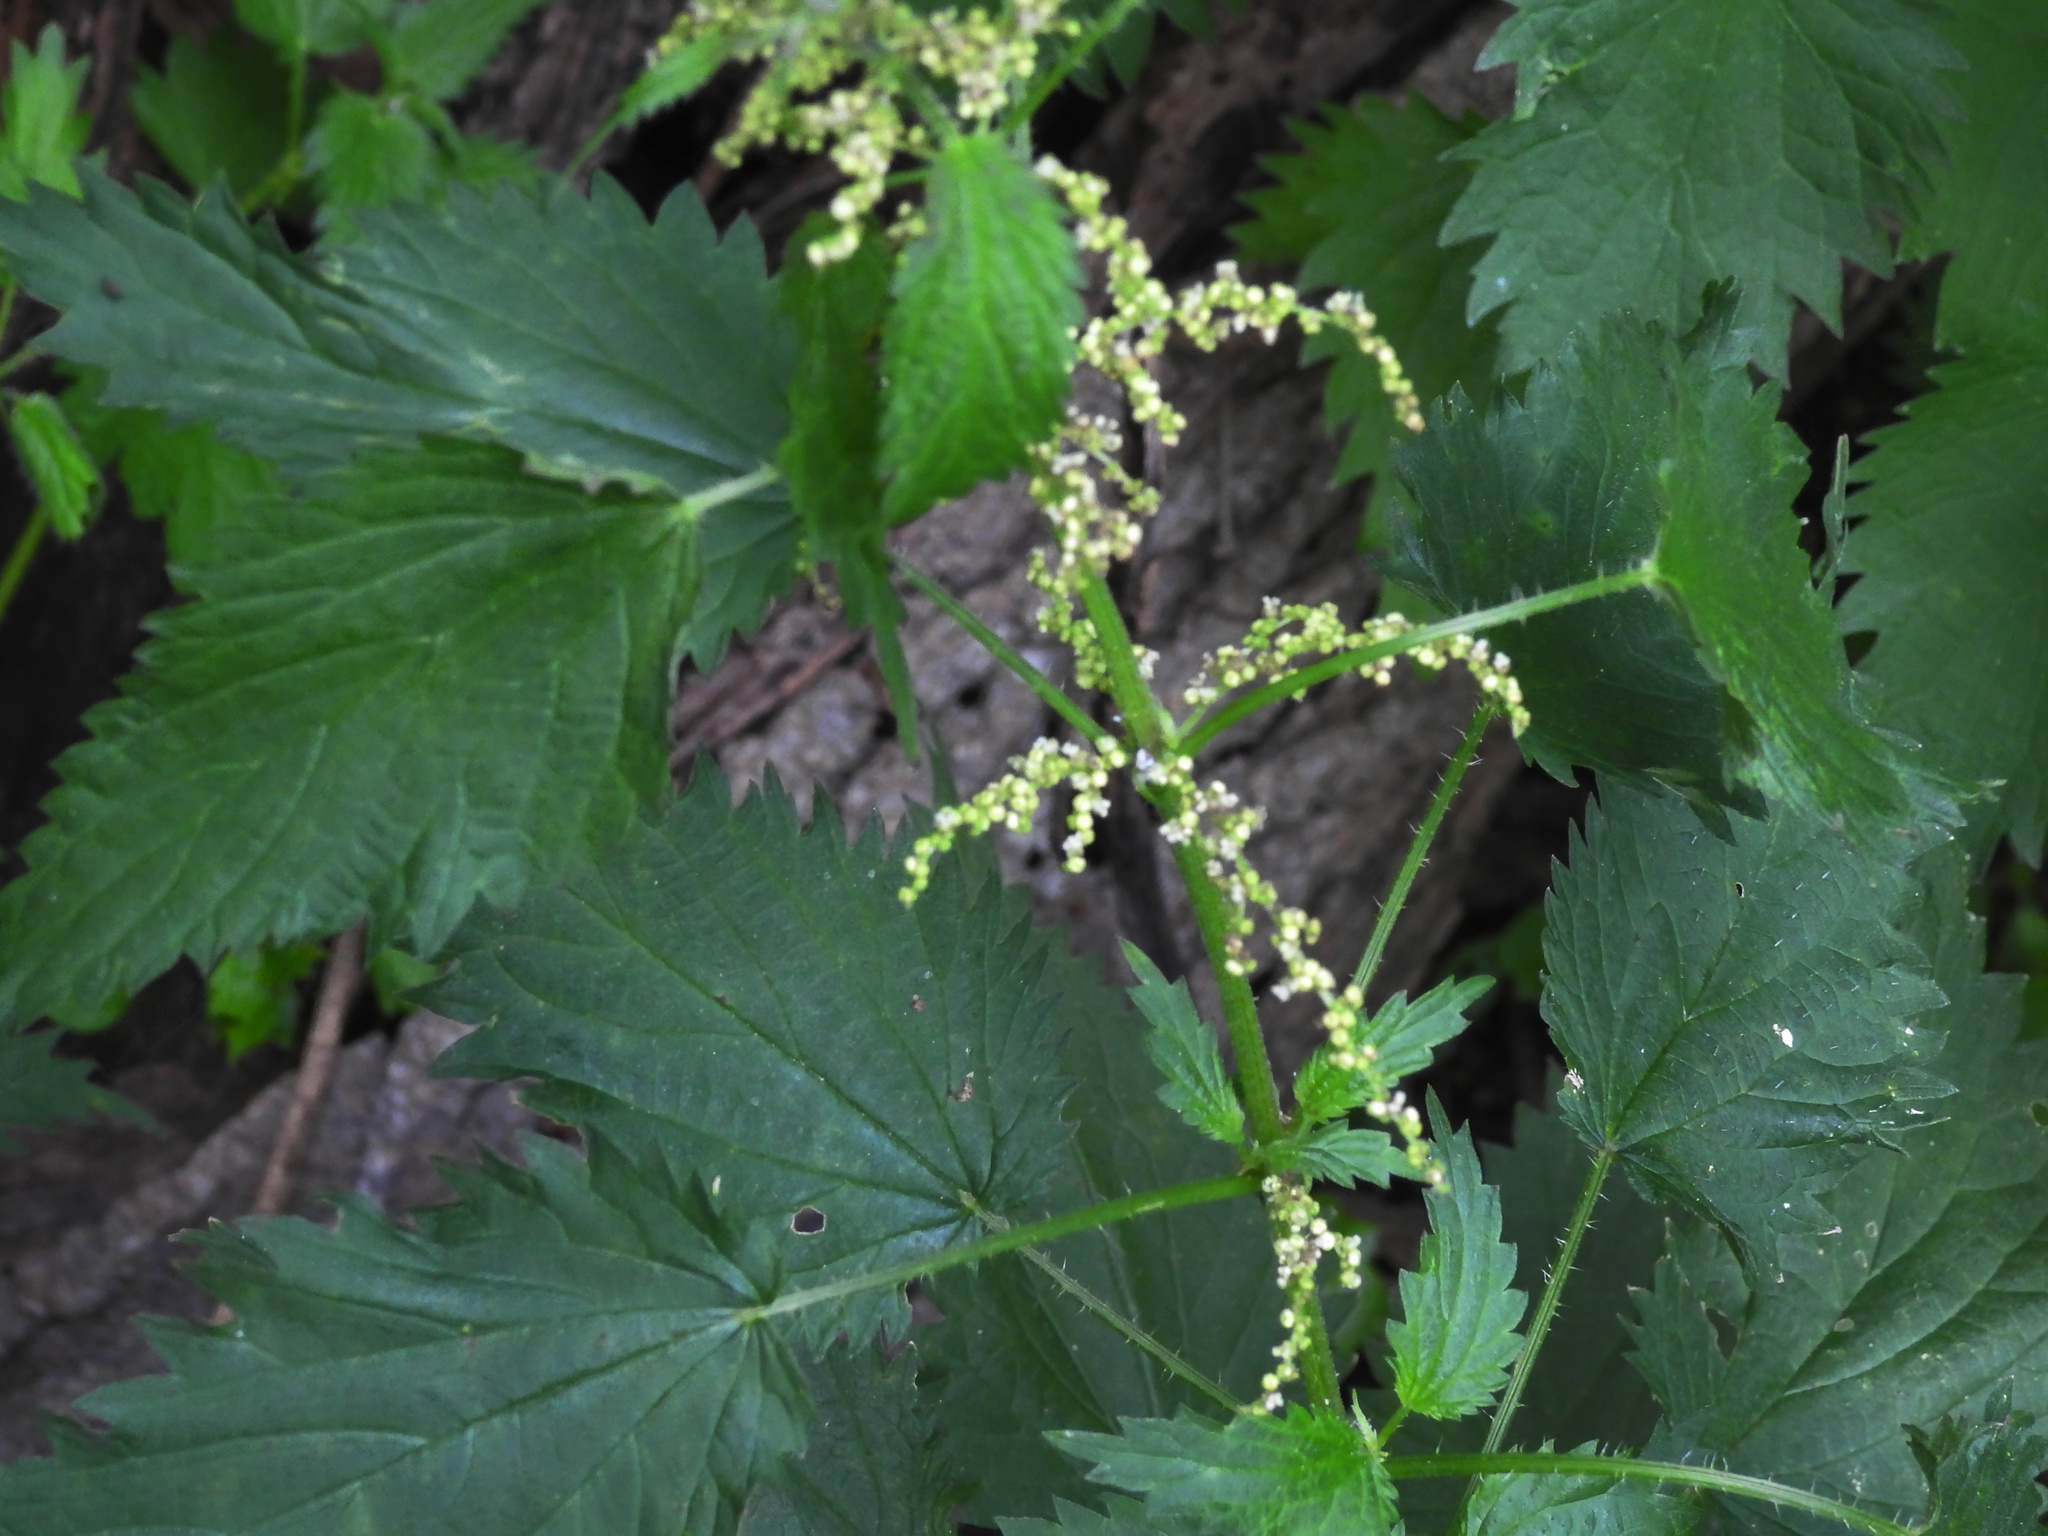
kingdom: Plantae
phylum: Tracheophyta
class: Magnoliopsida
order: Rosales
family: Urticaceae
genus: Urtica
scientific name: Urtica dioica
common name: Common nettle
